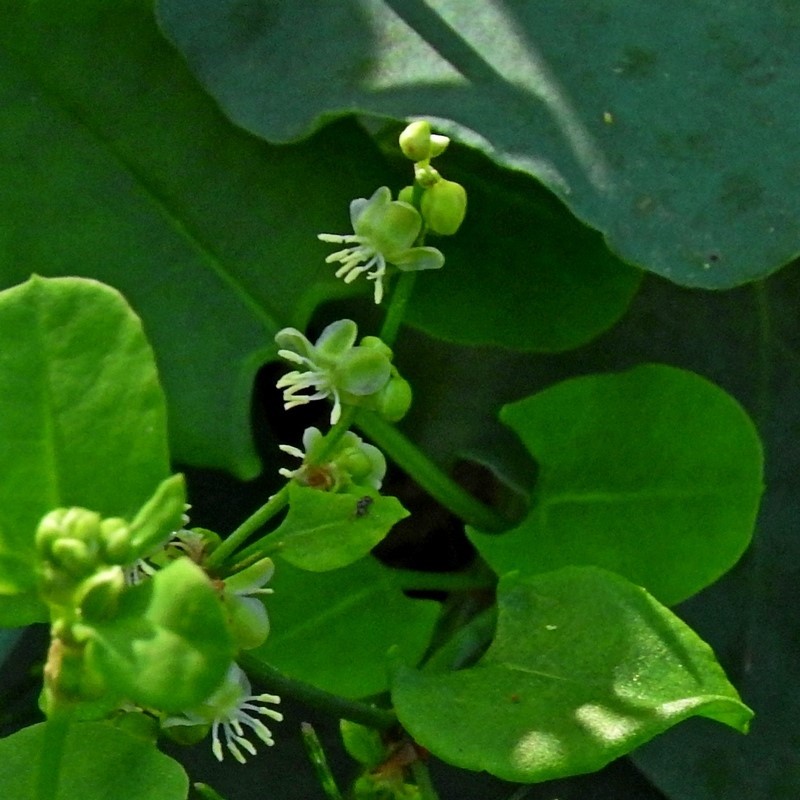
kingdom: Plantae
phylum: Tracheophyta
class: Magnoliopsida
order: Caryophyllales
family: Polygonaceae
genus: Muehlenbeckia
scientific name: Muehlenbeckia rhyticarya
